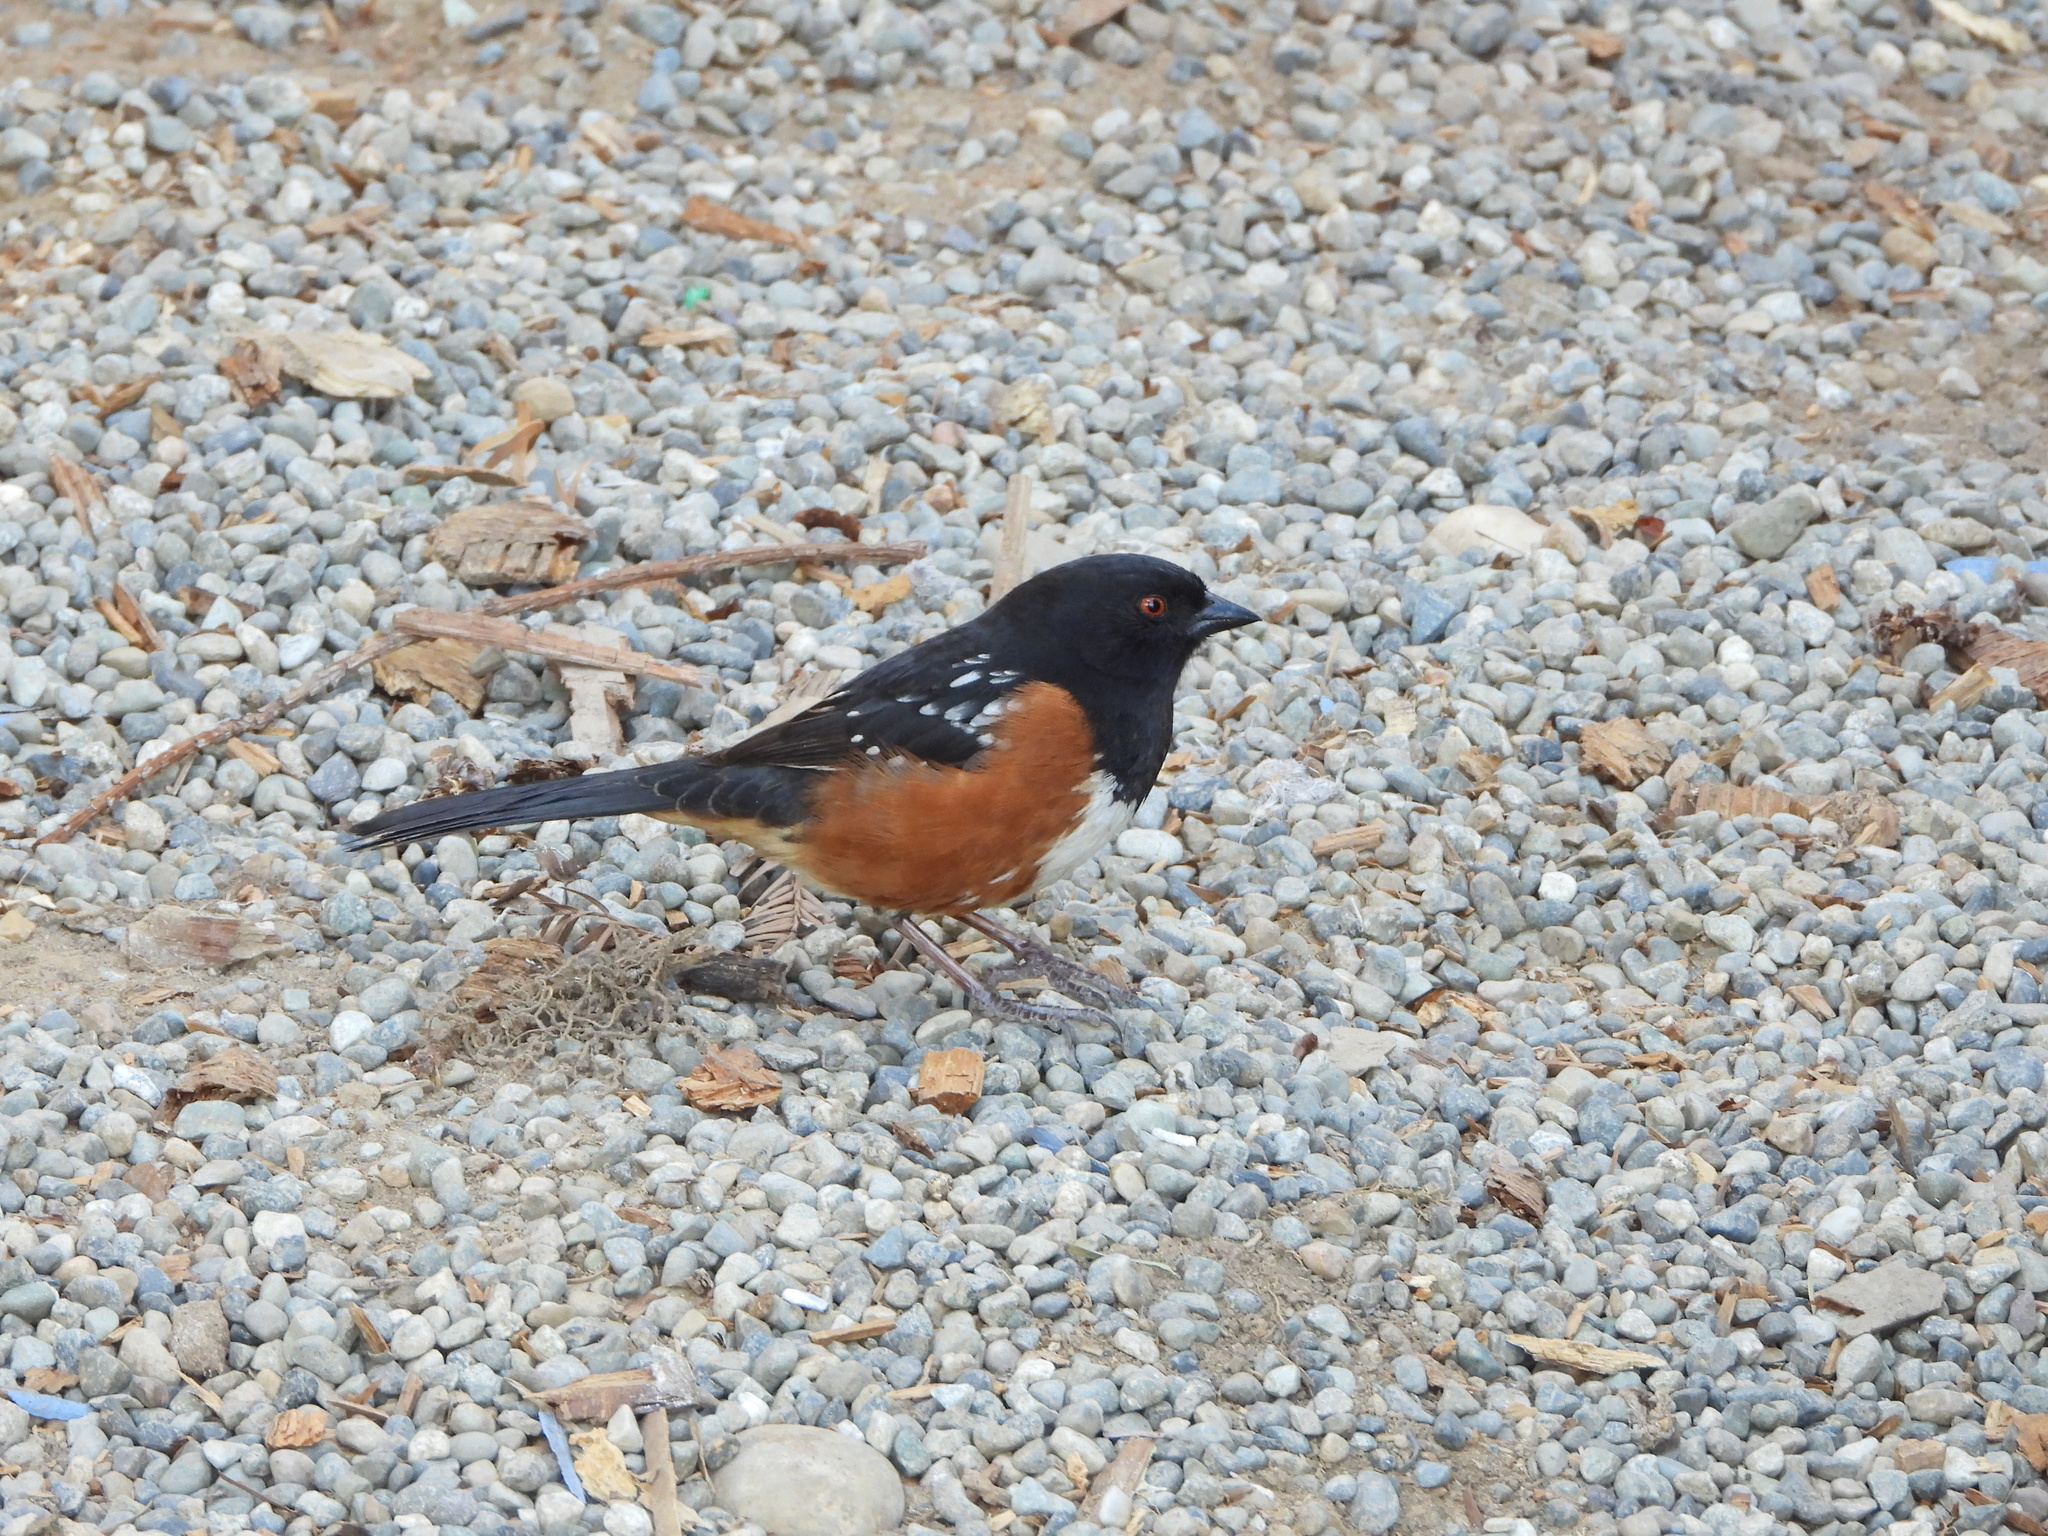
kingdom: Animalia
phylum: Chordata
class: Aves
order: Passeriformes
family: Passerellidae
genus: Pipilo
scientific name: Pipilo maculatus
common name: Spotted towhee
